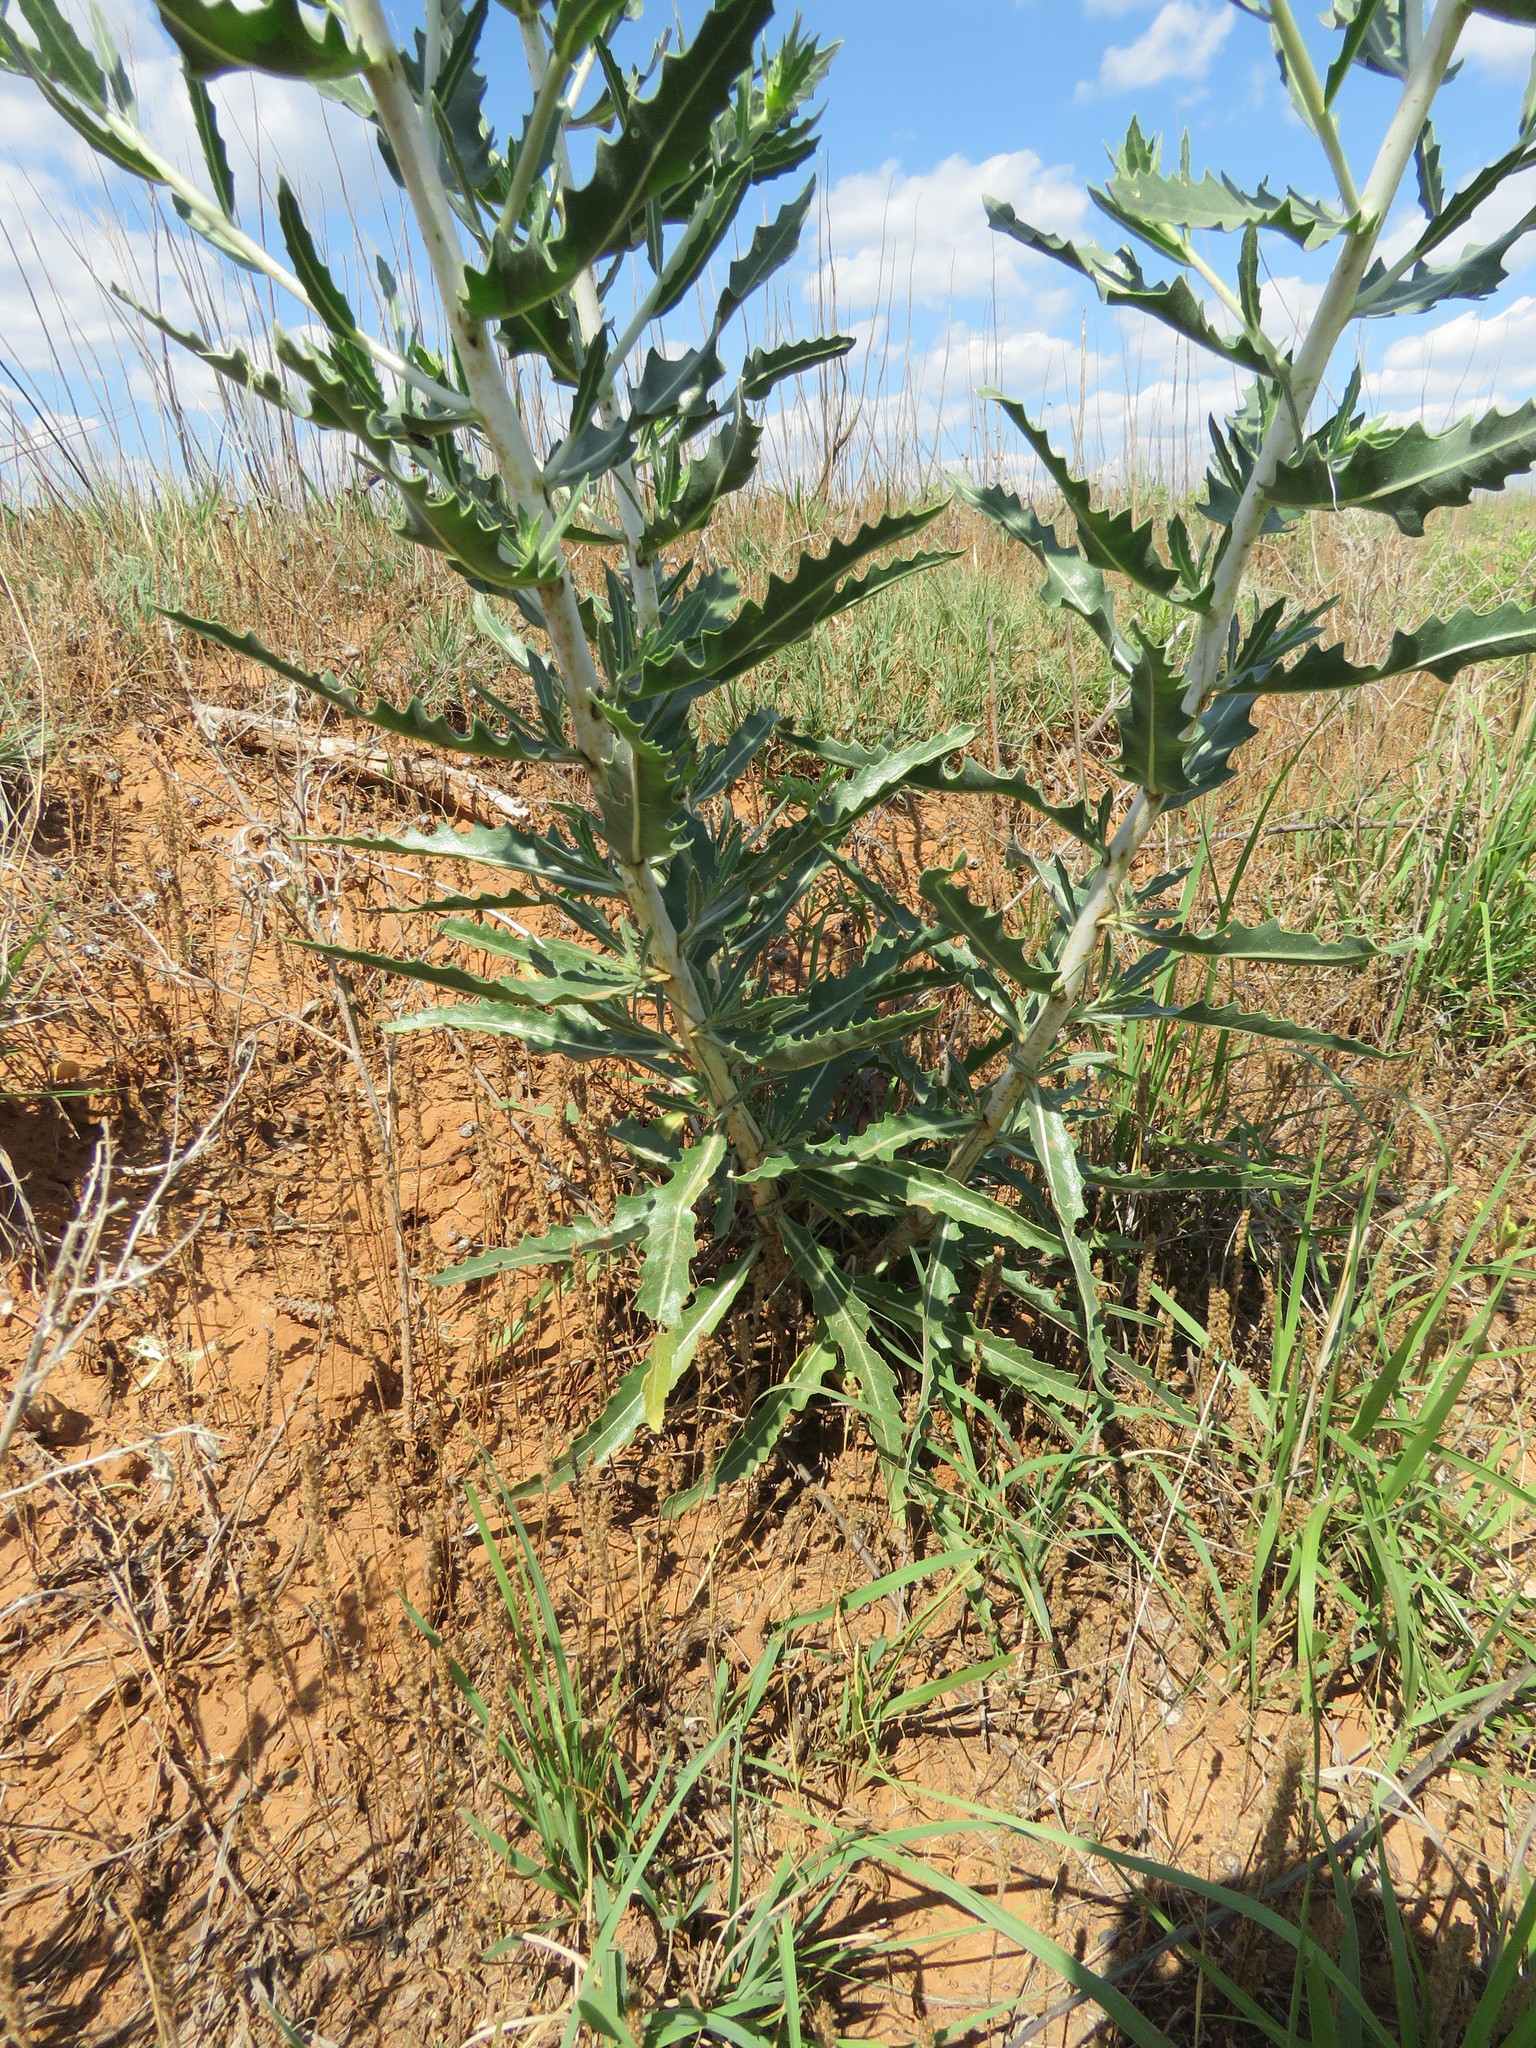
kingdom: Plantae
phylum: Tracheophyta
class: Magnoliopsida
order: Cornales
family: Loasaceae
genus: Mentzelia
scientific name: Mentzelia nuda
